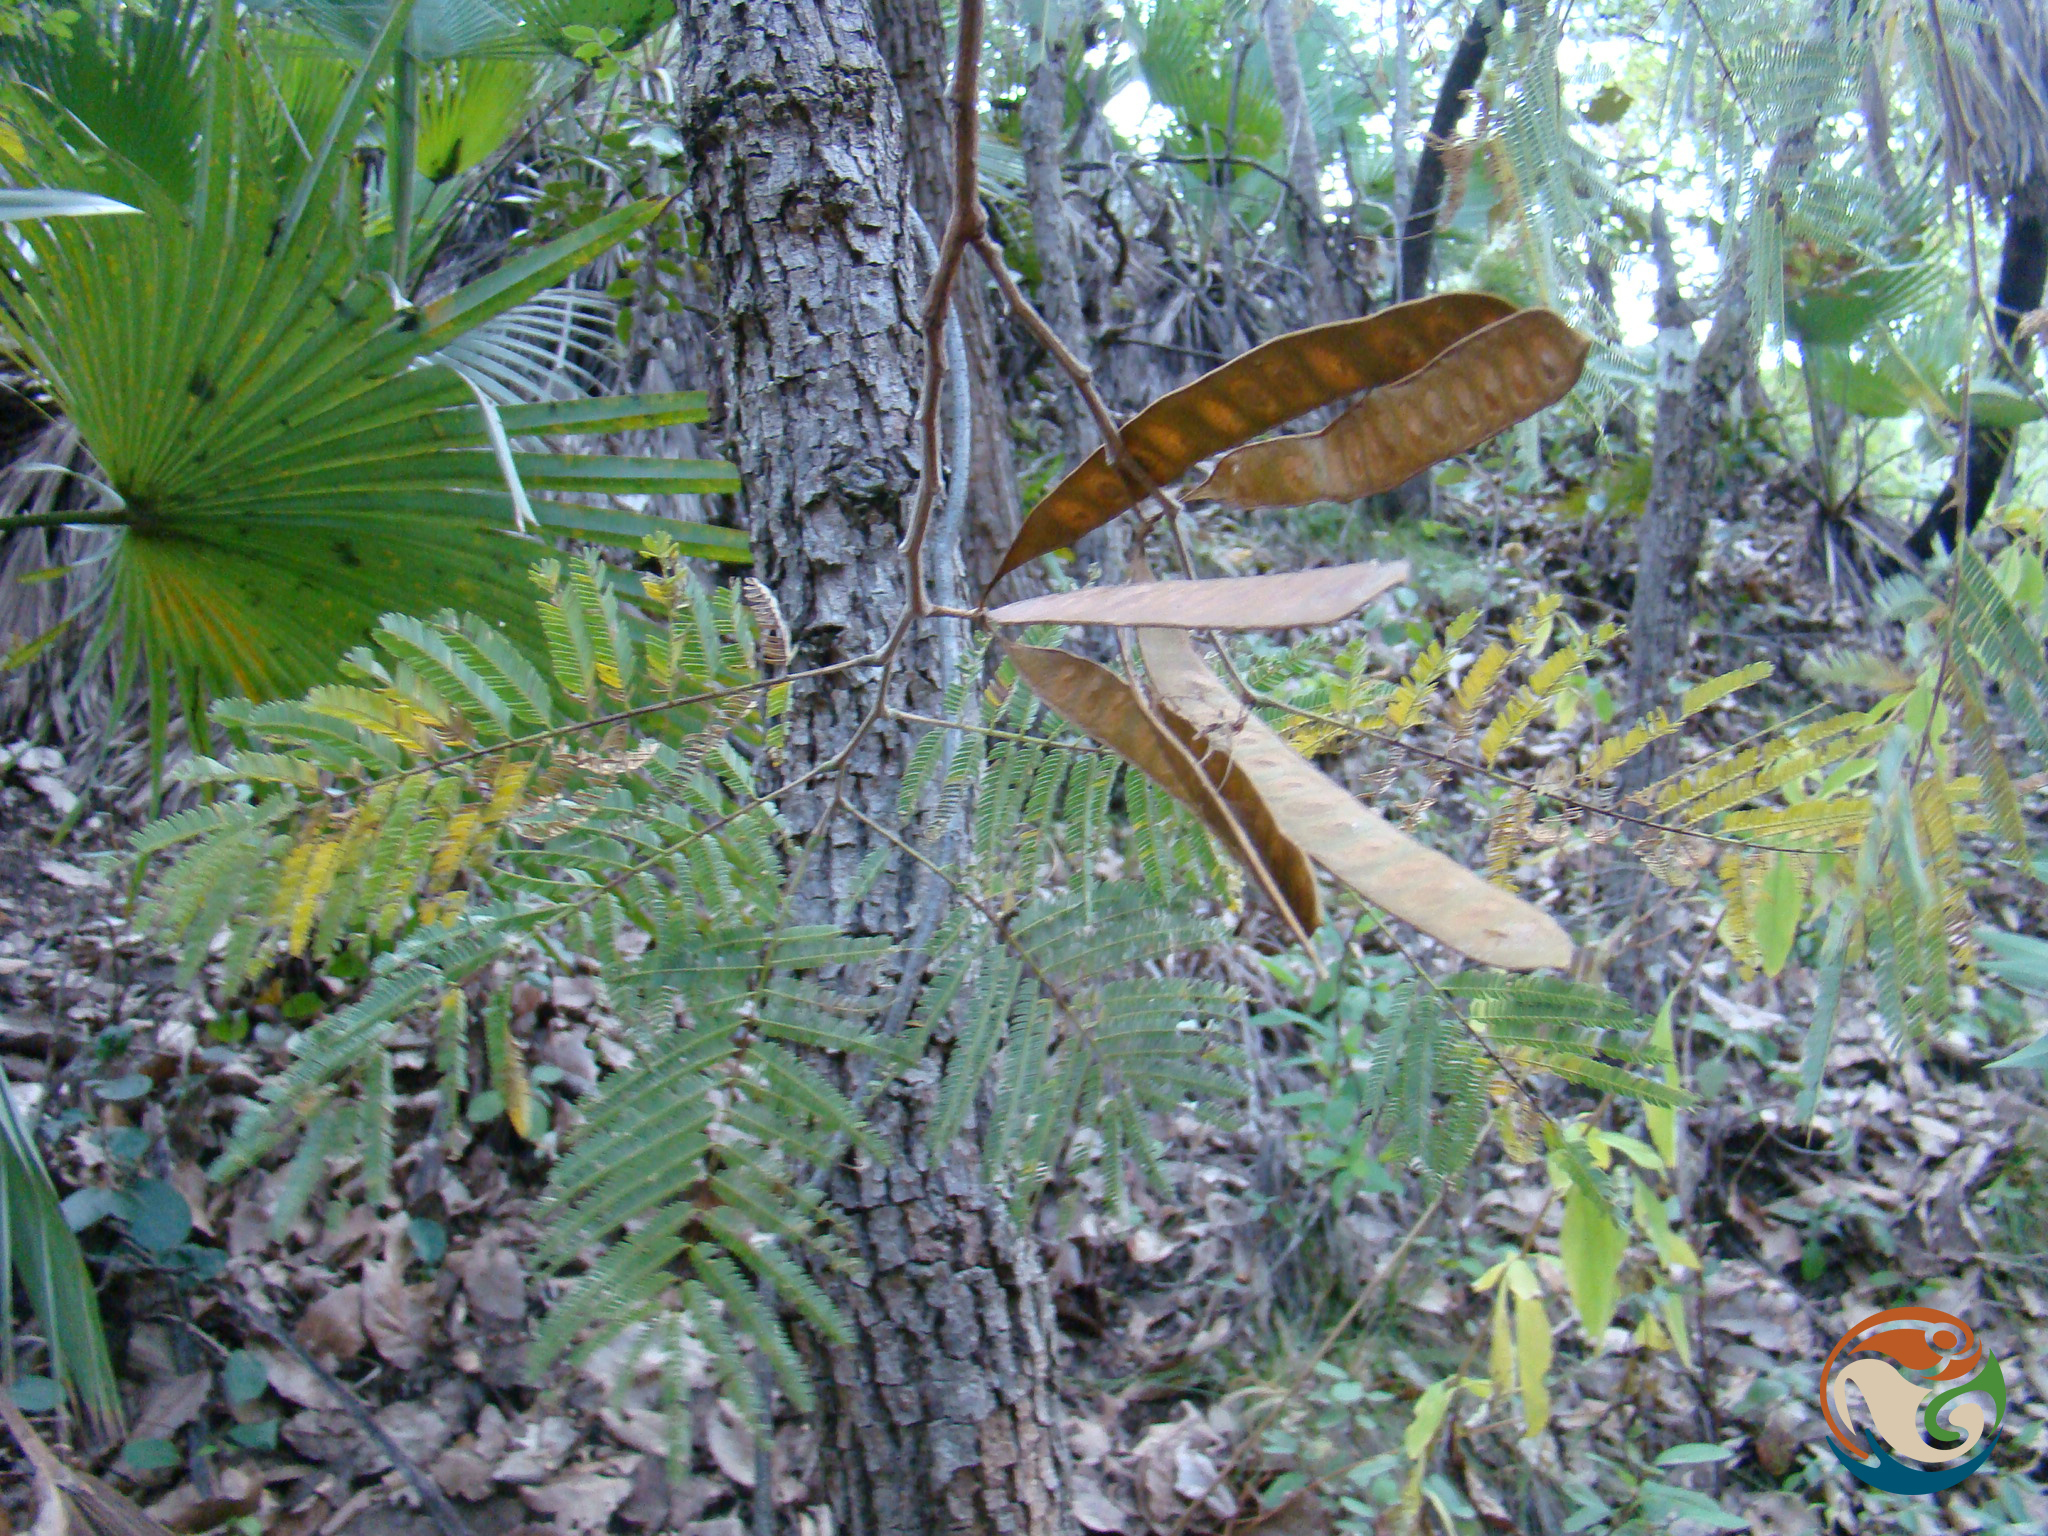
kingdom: Plantae
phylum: Tracheophyta
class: Magnoliopsida
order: Fabales
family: Fabaceae
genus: Lysiloma
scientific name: Lysiloma divaricatum
